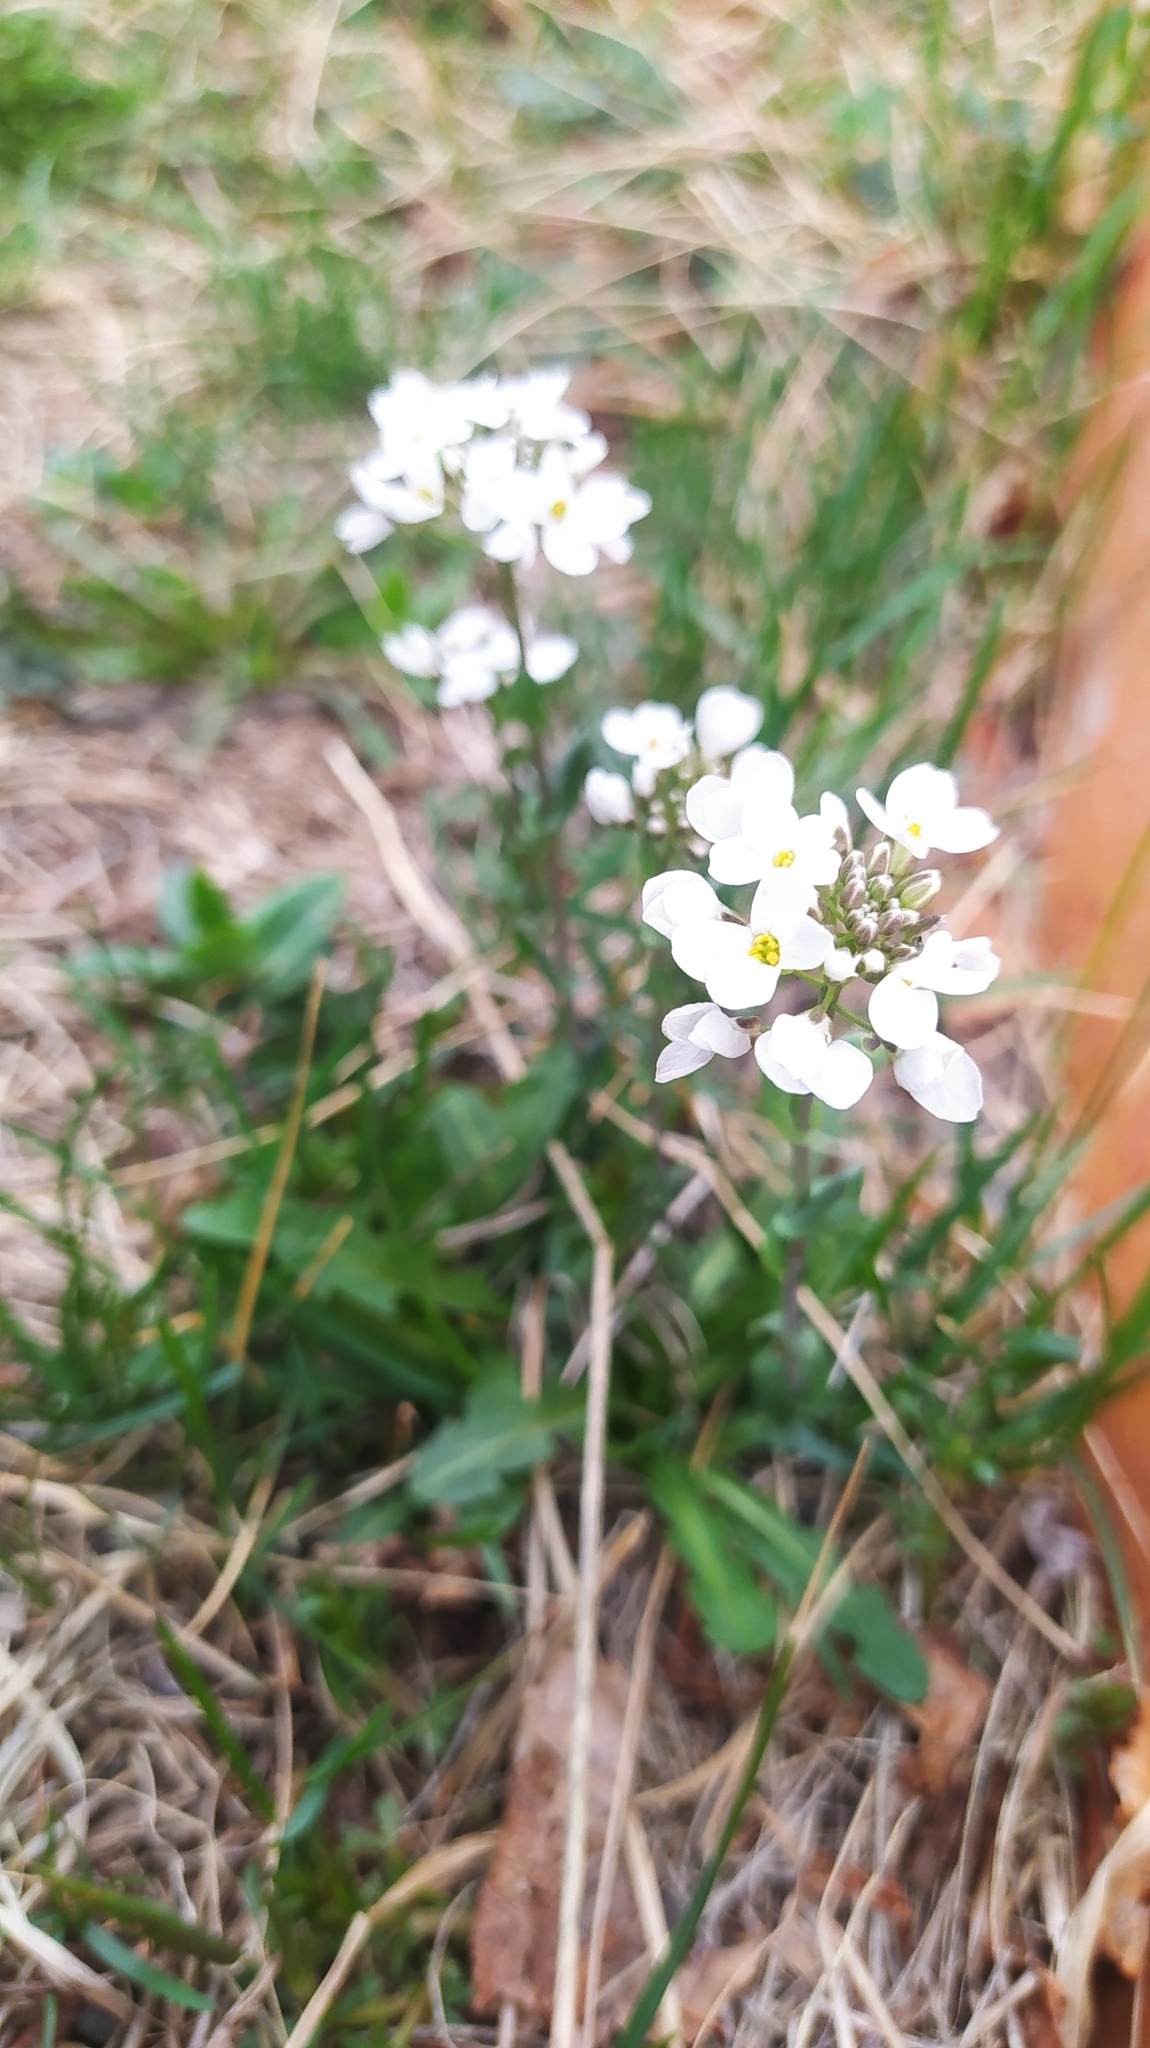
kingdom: Plantae
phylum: Tracheophyta
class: Magnoliopsida
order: Brassicales
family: Brassicaceae
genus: Noccaea
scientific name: Noccaea thlaspidioides
